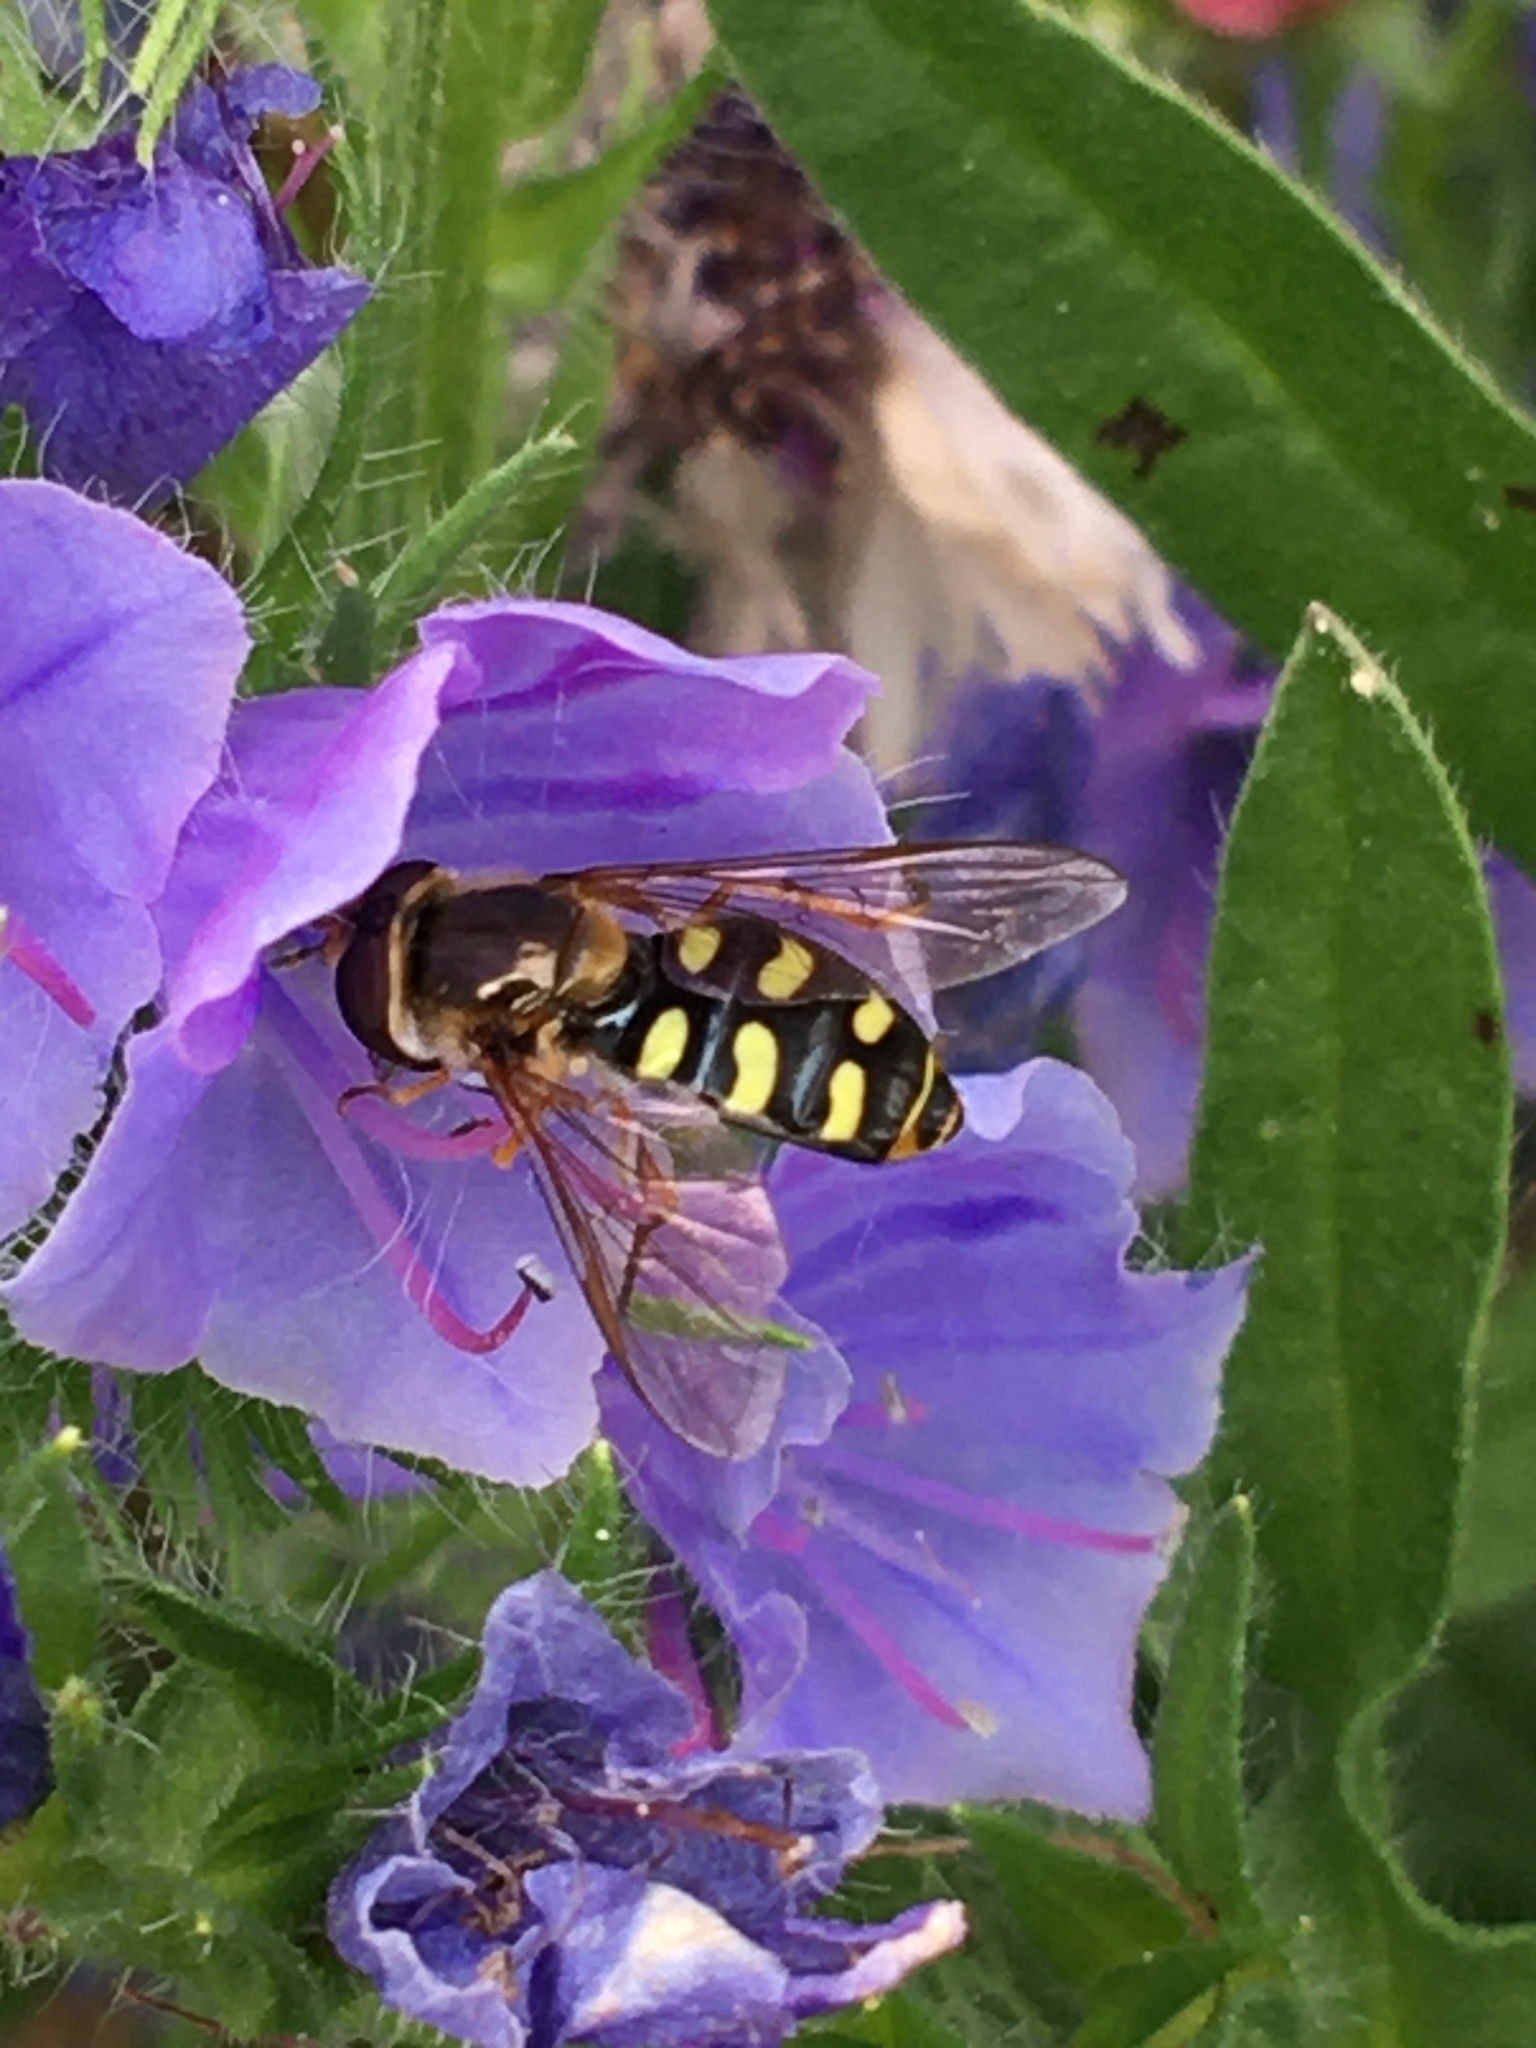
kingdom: Animalia
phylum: Arthropoda
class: Insecta
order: Diptera
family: Syrphidae
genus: Eupeodes
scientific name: Eupeodes
